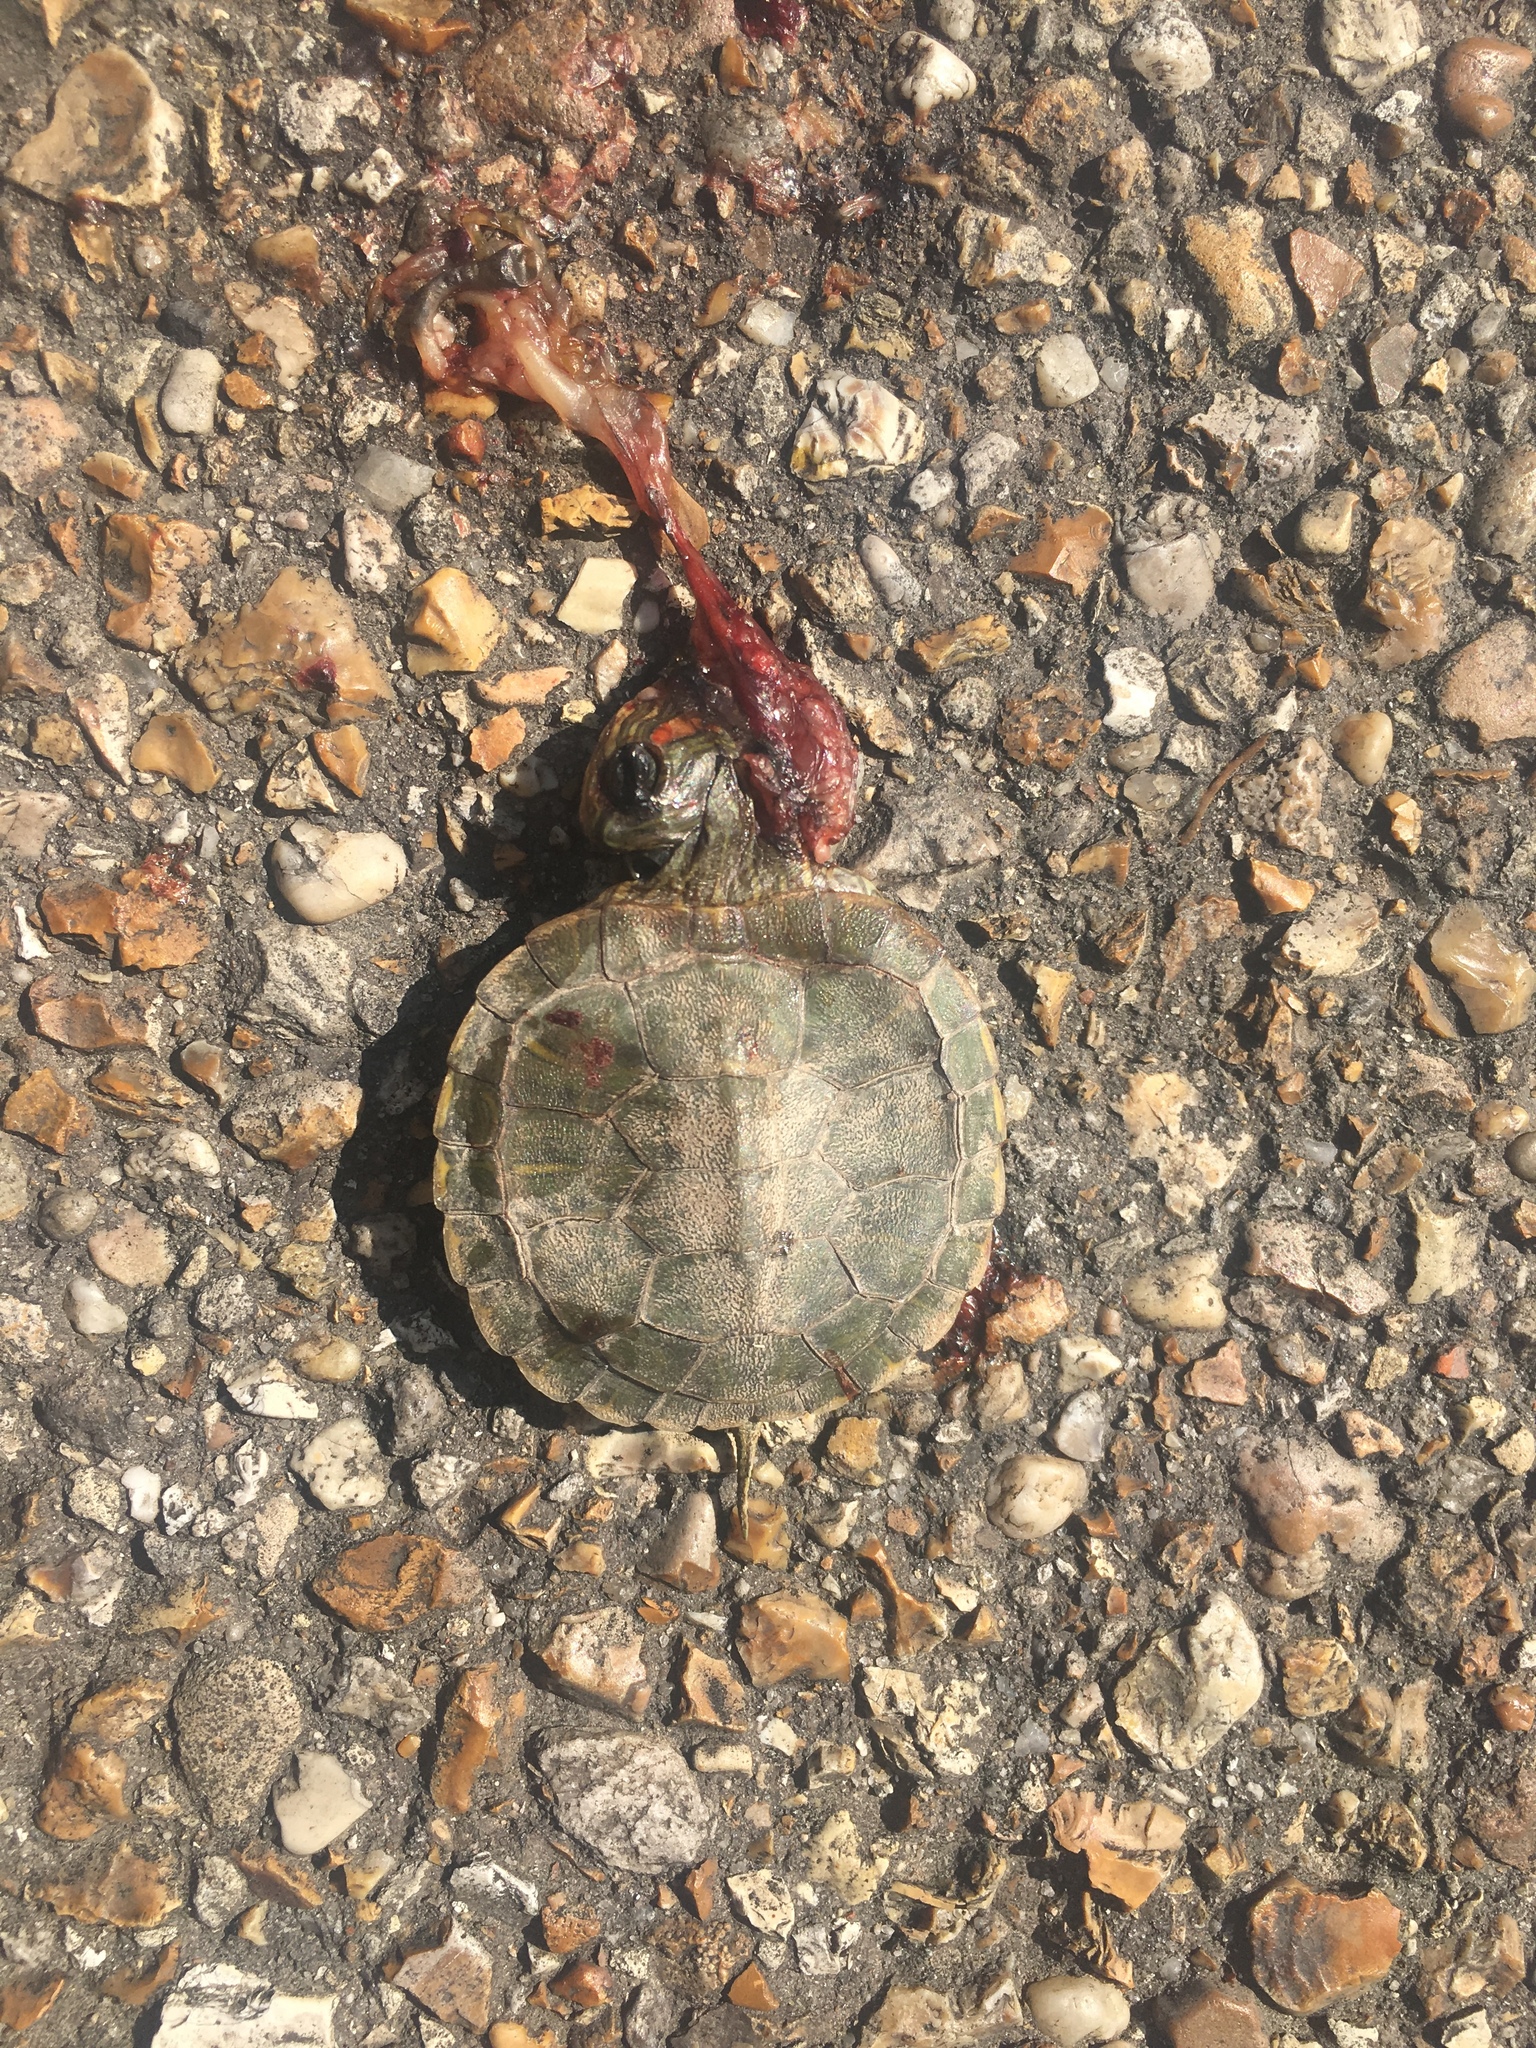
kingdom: Animalia
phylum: Chordata
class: Testudines
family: Emydidae
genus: Trachemys
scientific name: Trachemys scripta
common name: Slider
